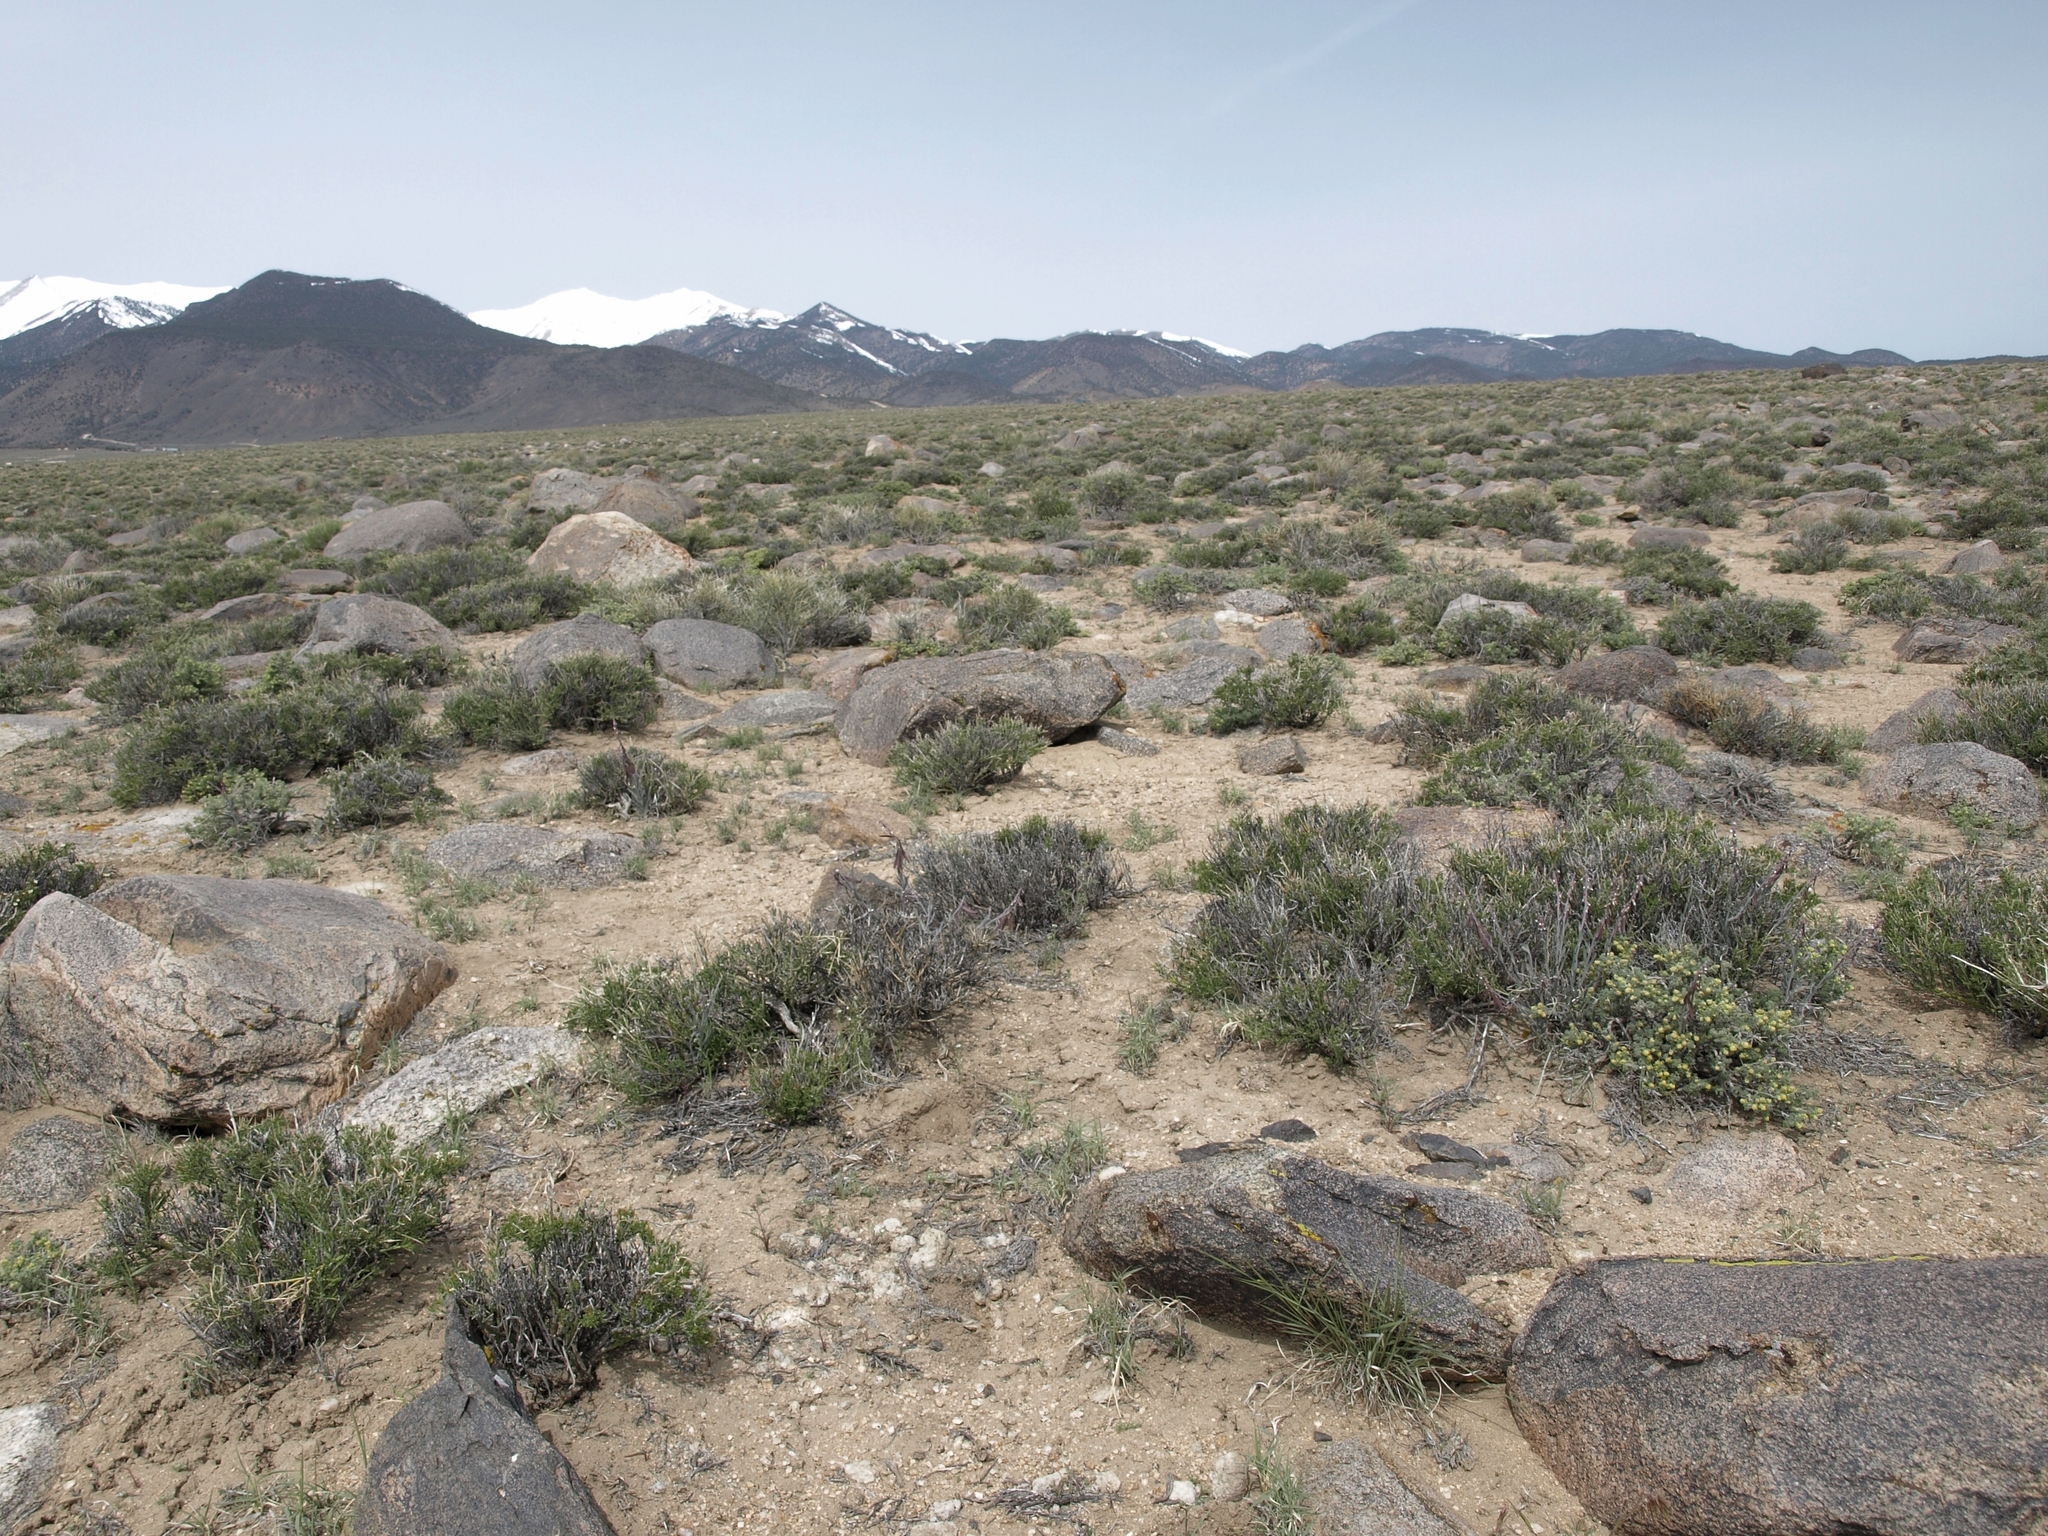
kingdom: Plantae
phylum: Tracheophyta
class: Magnoliopsida
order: Brassicales
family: Brassicaceae
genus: Boechera
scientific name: Boechera glaucovalvula
